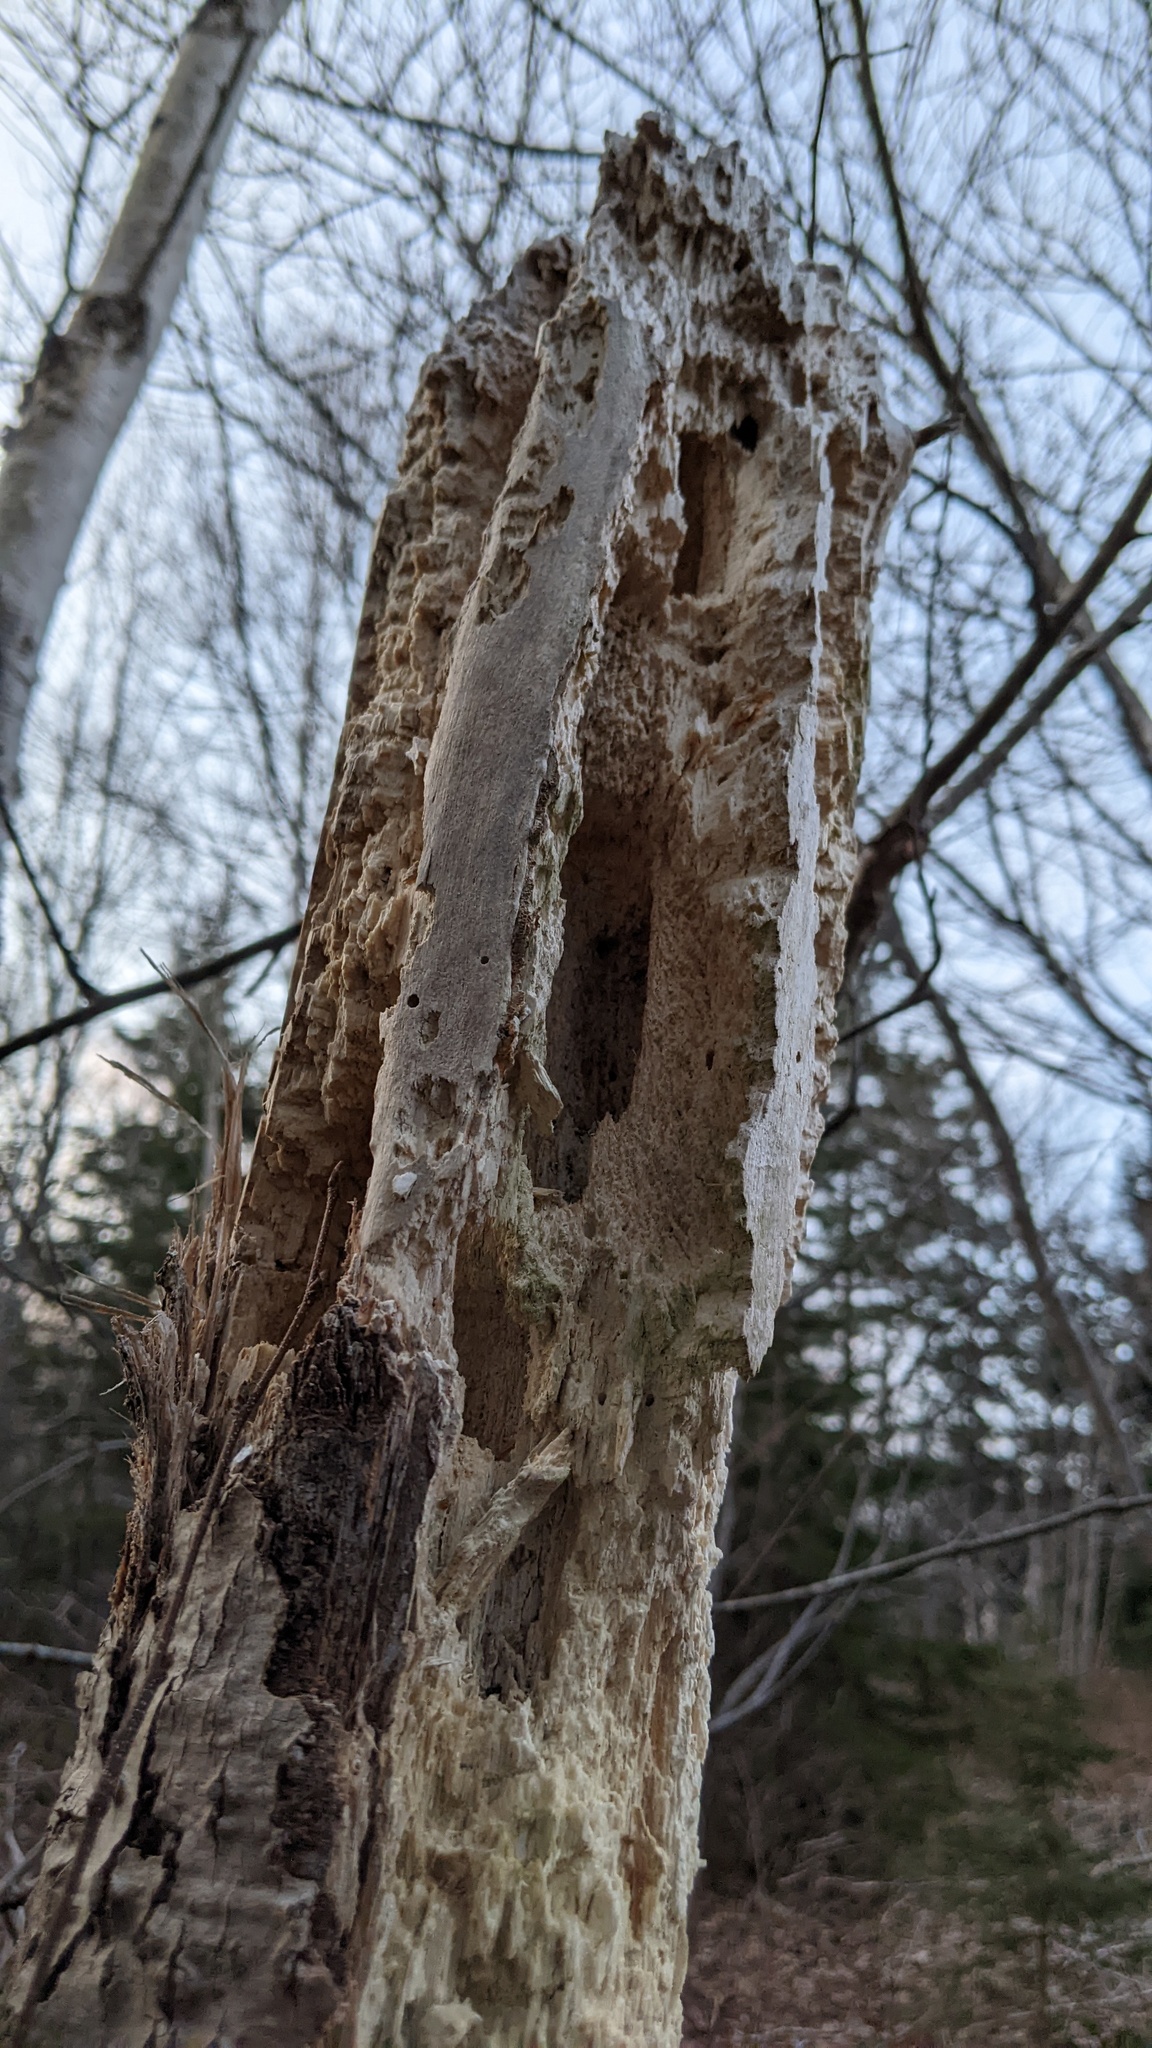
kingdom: Animalia
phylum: Chordata
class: Aves
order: Piciformes
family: Picidae
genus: Dryocopus
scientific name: Dryocopus pileatus
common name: Pileated woodpecker
